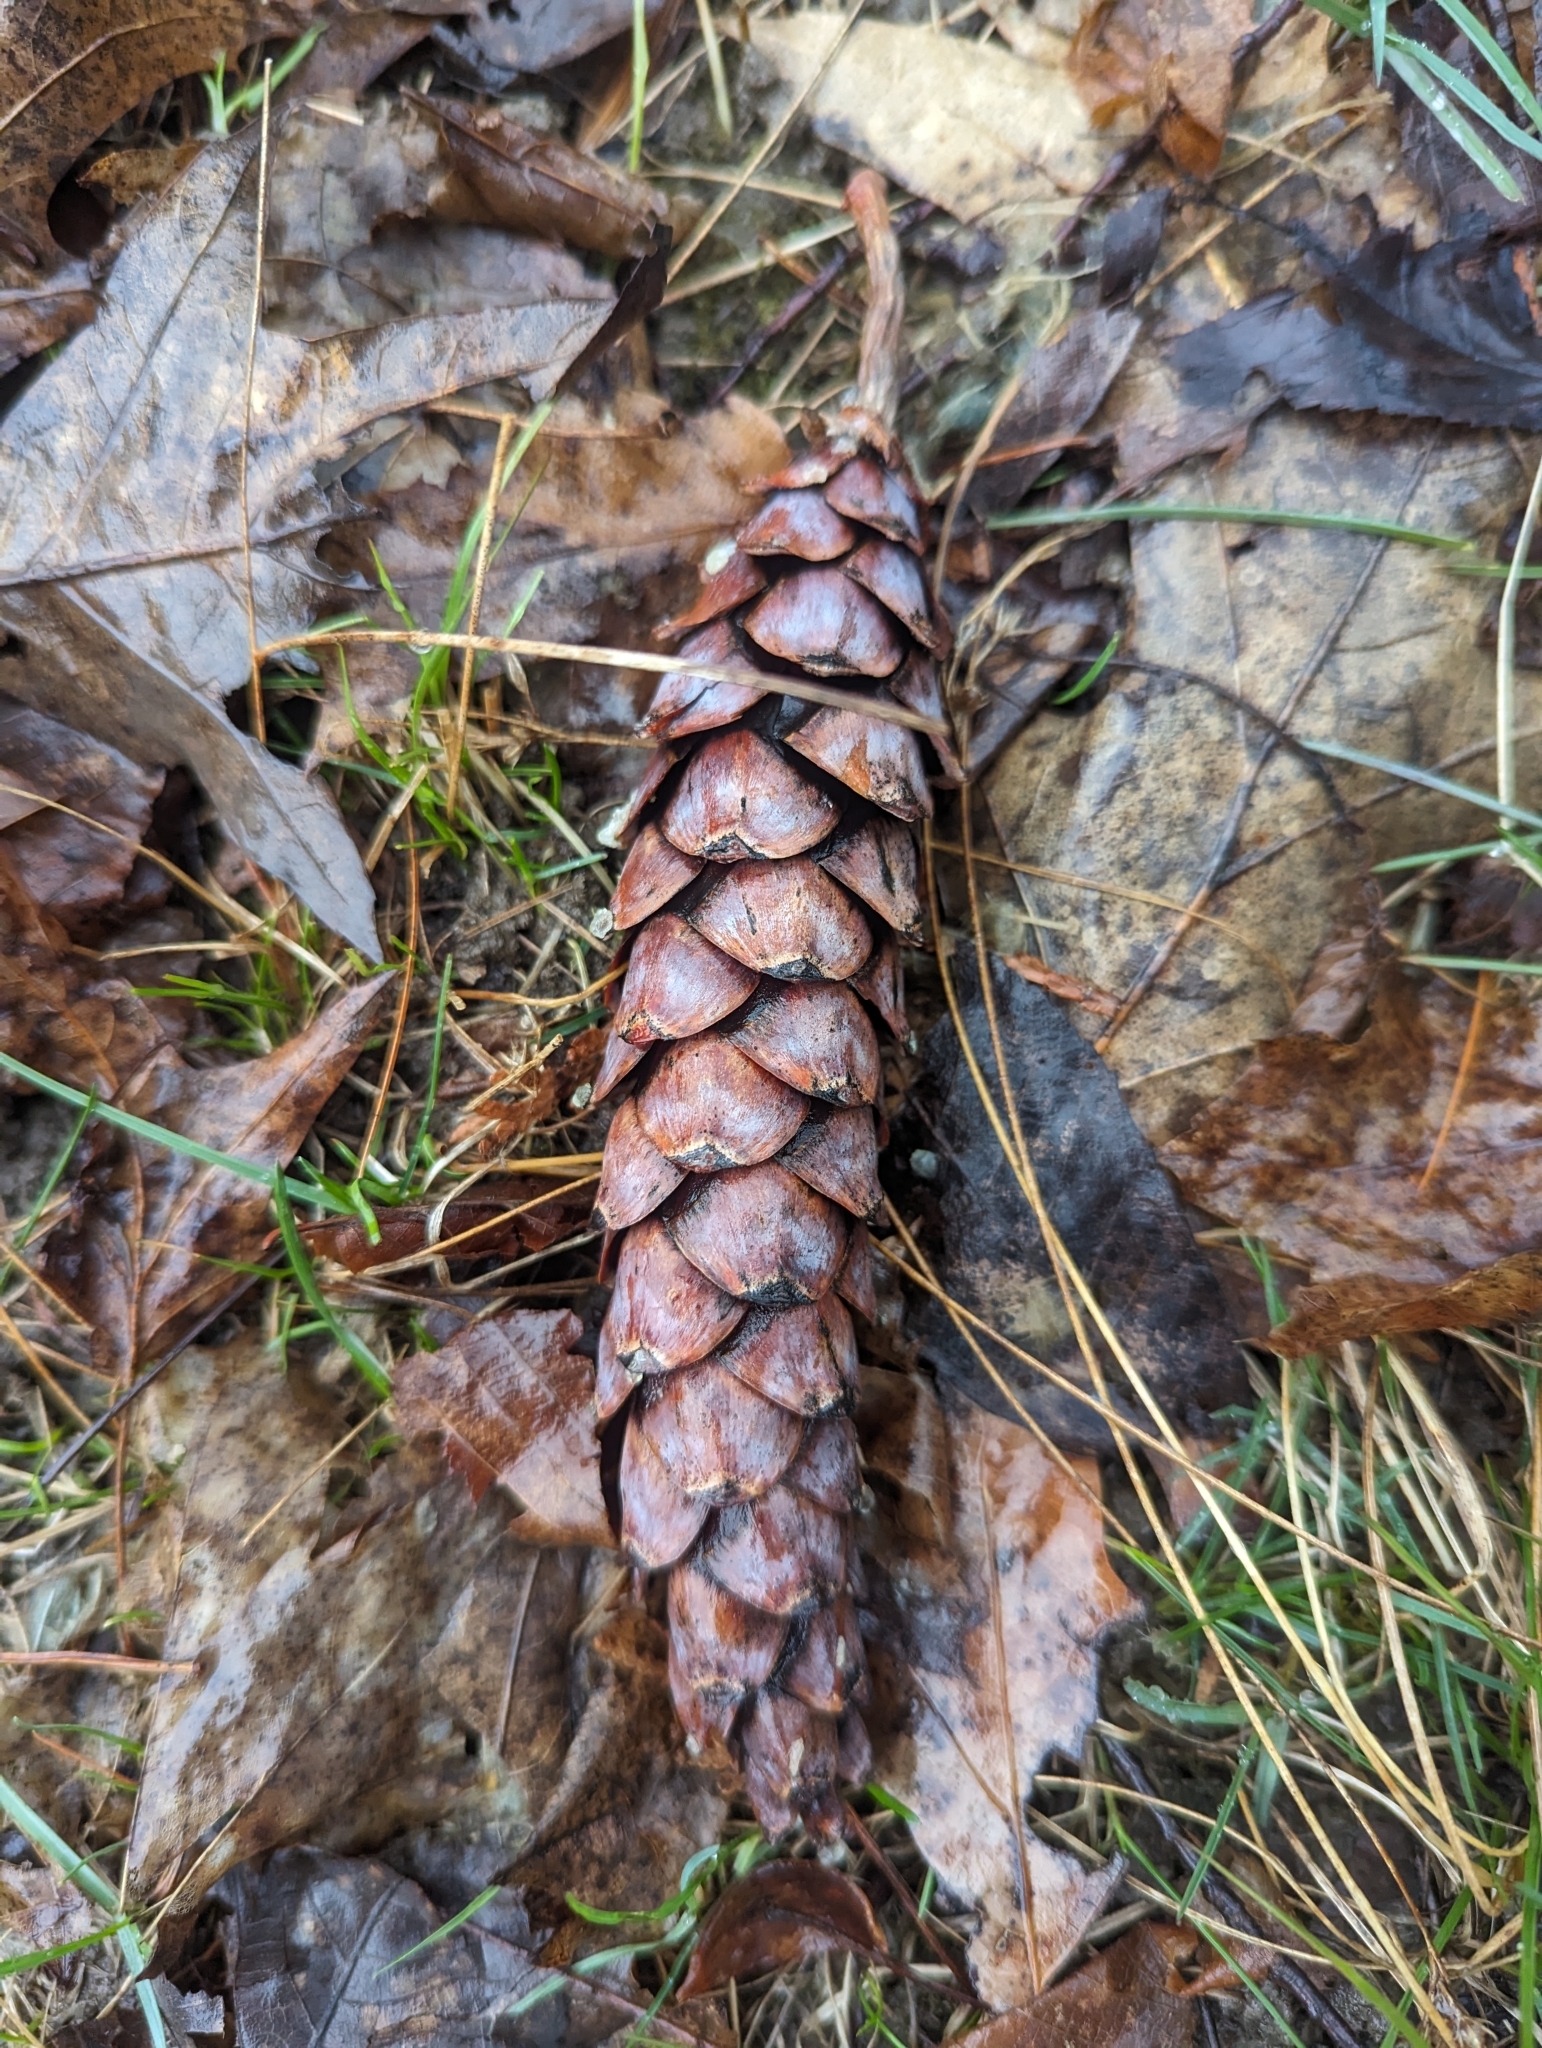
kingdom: Plantae
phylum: Tracheophyta
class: Pinopsida
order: Pinales
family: Pinaceae
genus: Pinus
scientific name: Pinus strobus
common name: Weymouth pine
